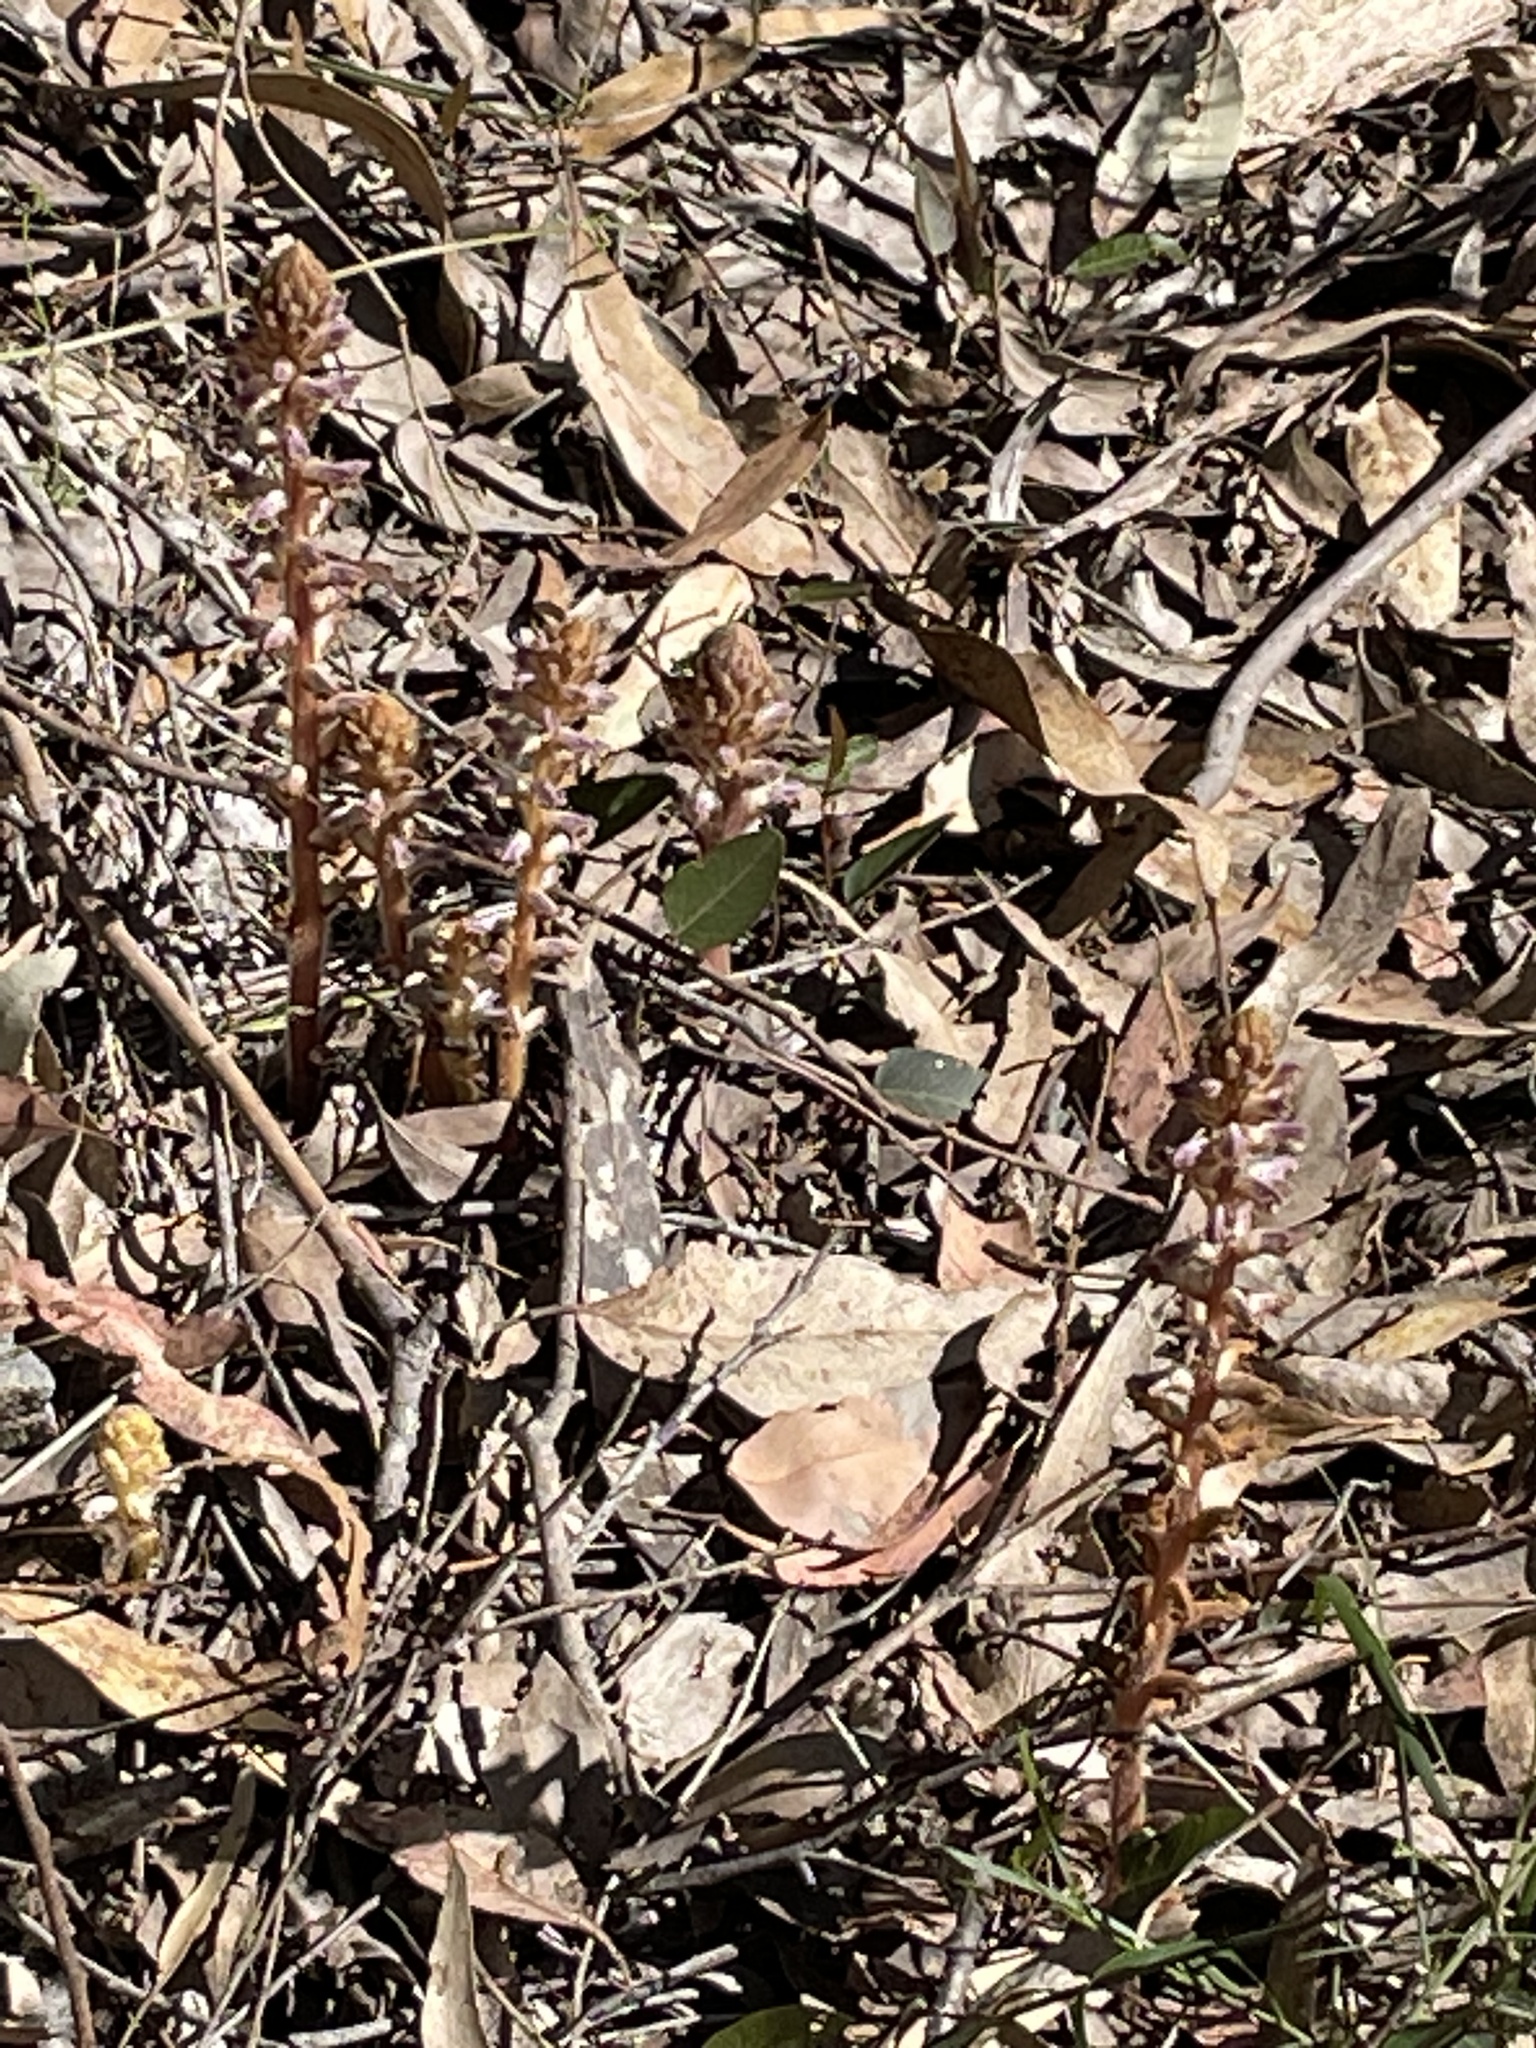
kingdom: Plantae
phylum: Tracheophyta
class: Magnoliopsida
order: Lamiales
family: Orobanchaceae
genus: Orobanche
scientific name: Orobanche minor
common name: Common broomrape
